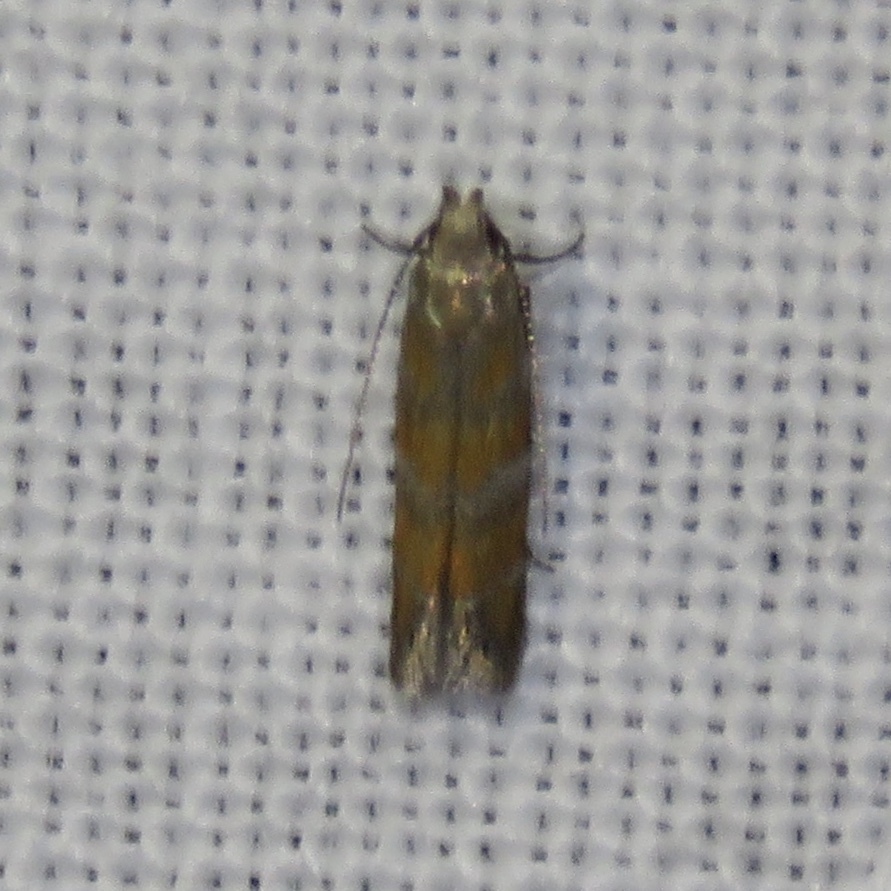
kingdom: Animalia
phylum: Arthropoda
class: Insecta
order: Lepidoptera
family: Gelechiidae
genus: Battaristis
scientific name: Battaristis vittella
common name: Orange stripe-backed moth
